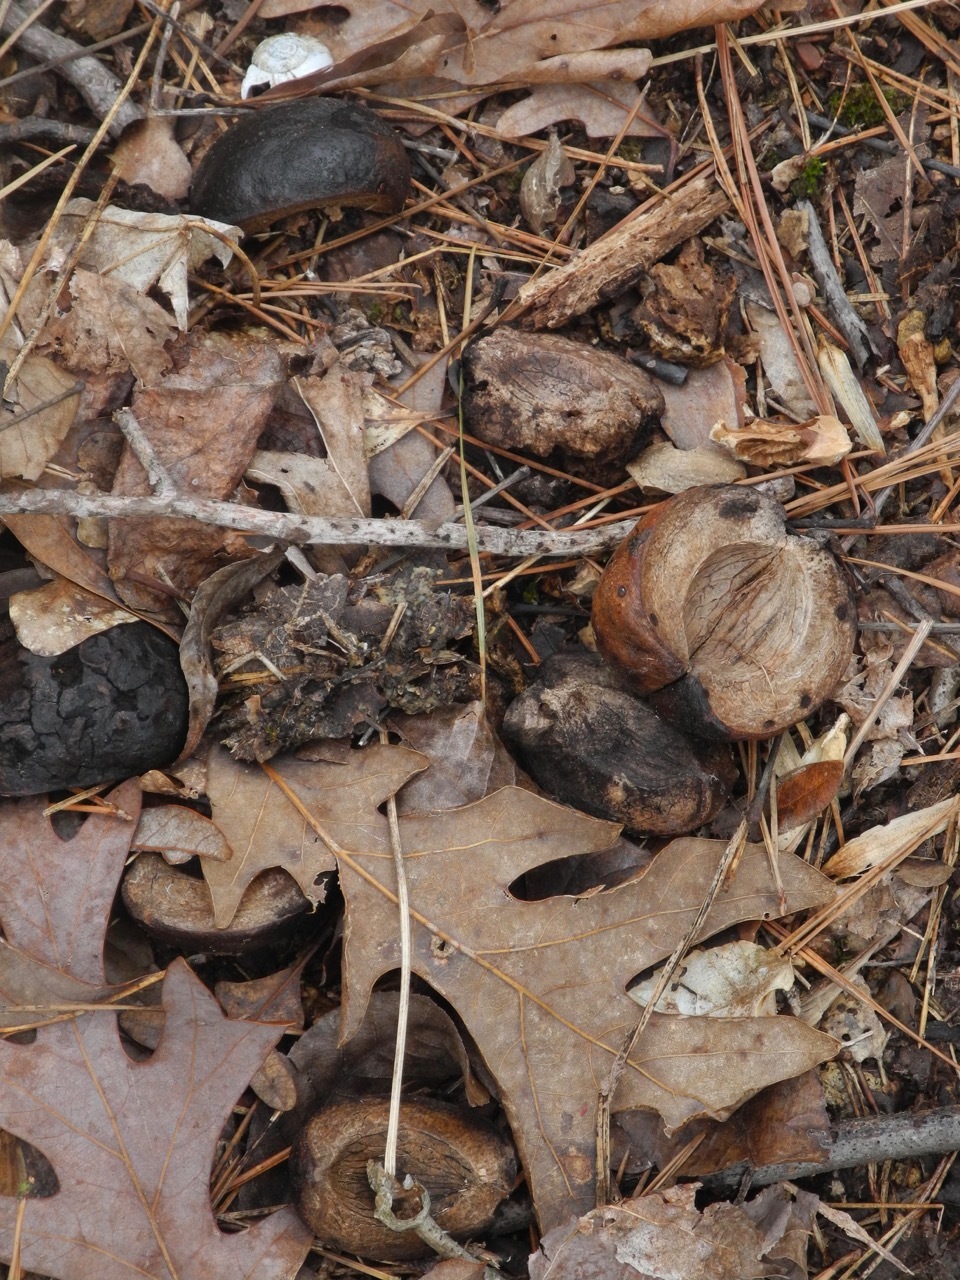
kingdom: Plantae
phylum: Tracheophyta
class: Magnoliopsida
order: Fagales
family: Juglandaceae
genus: Carya
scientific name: Carya alba
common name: Mockernut hickory
